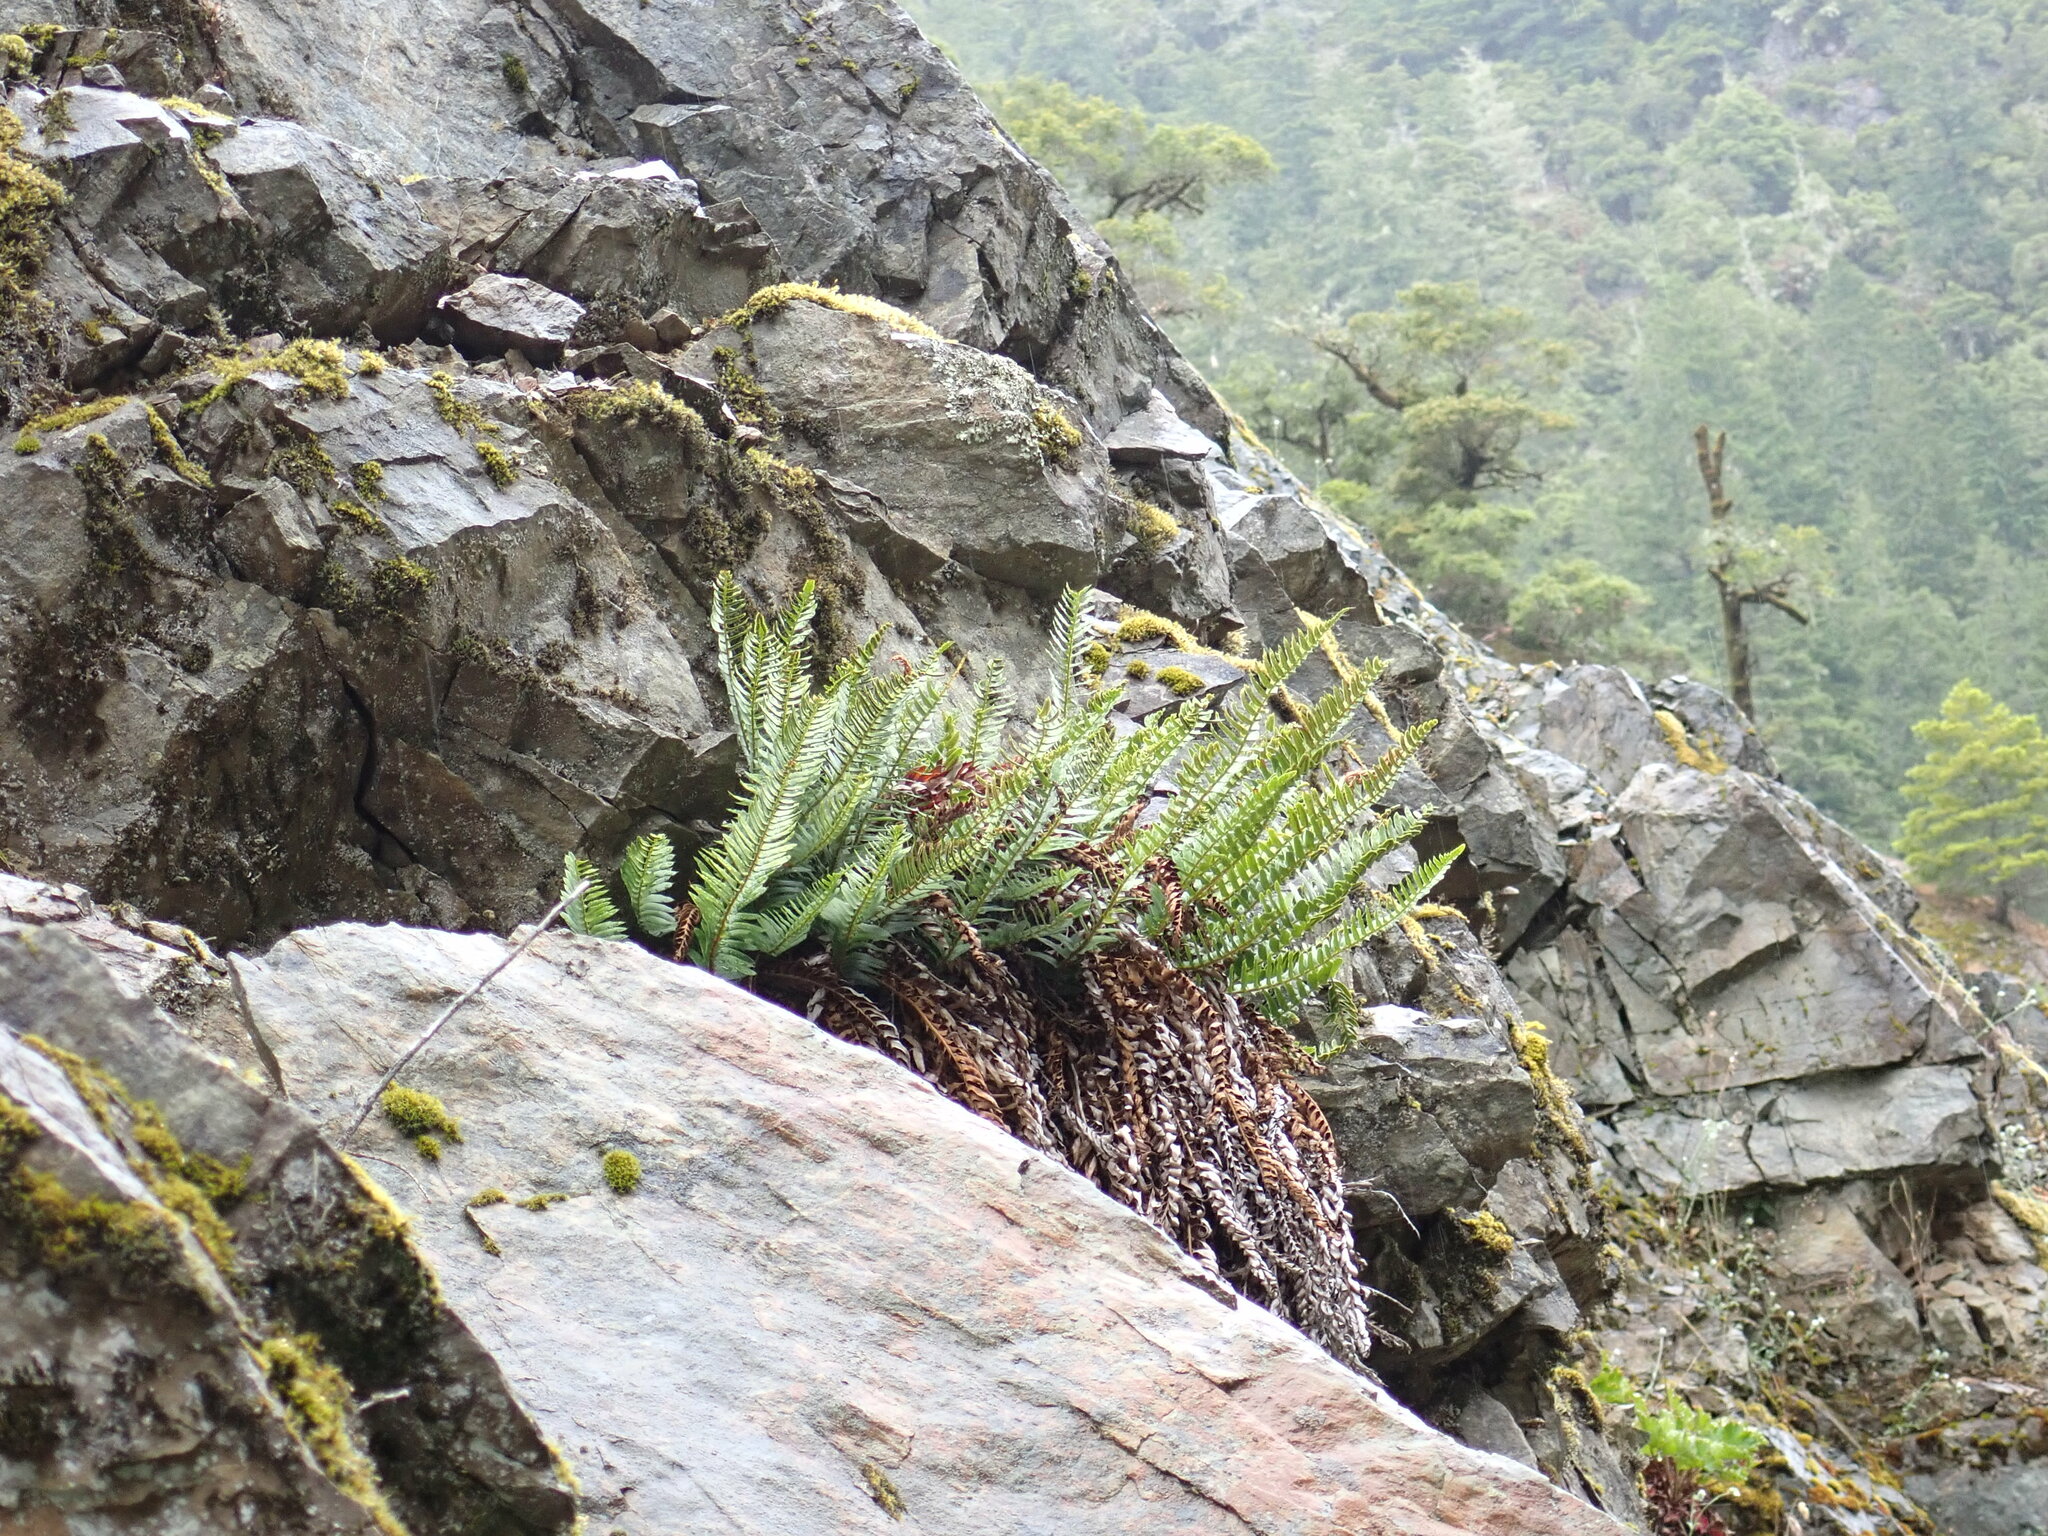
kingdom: Plantae
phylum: Tracheophyta
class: Polypodiopsida
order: Polypodiales
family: Dryopteridaceae
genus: Polystichum
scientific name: Polystichum imbricans
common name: Dwarf western sword fern
